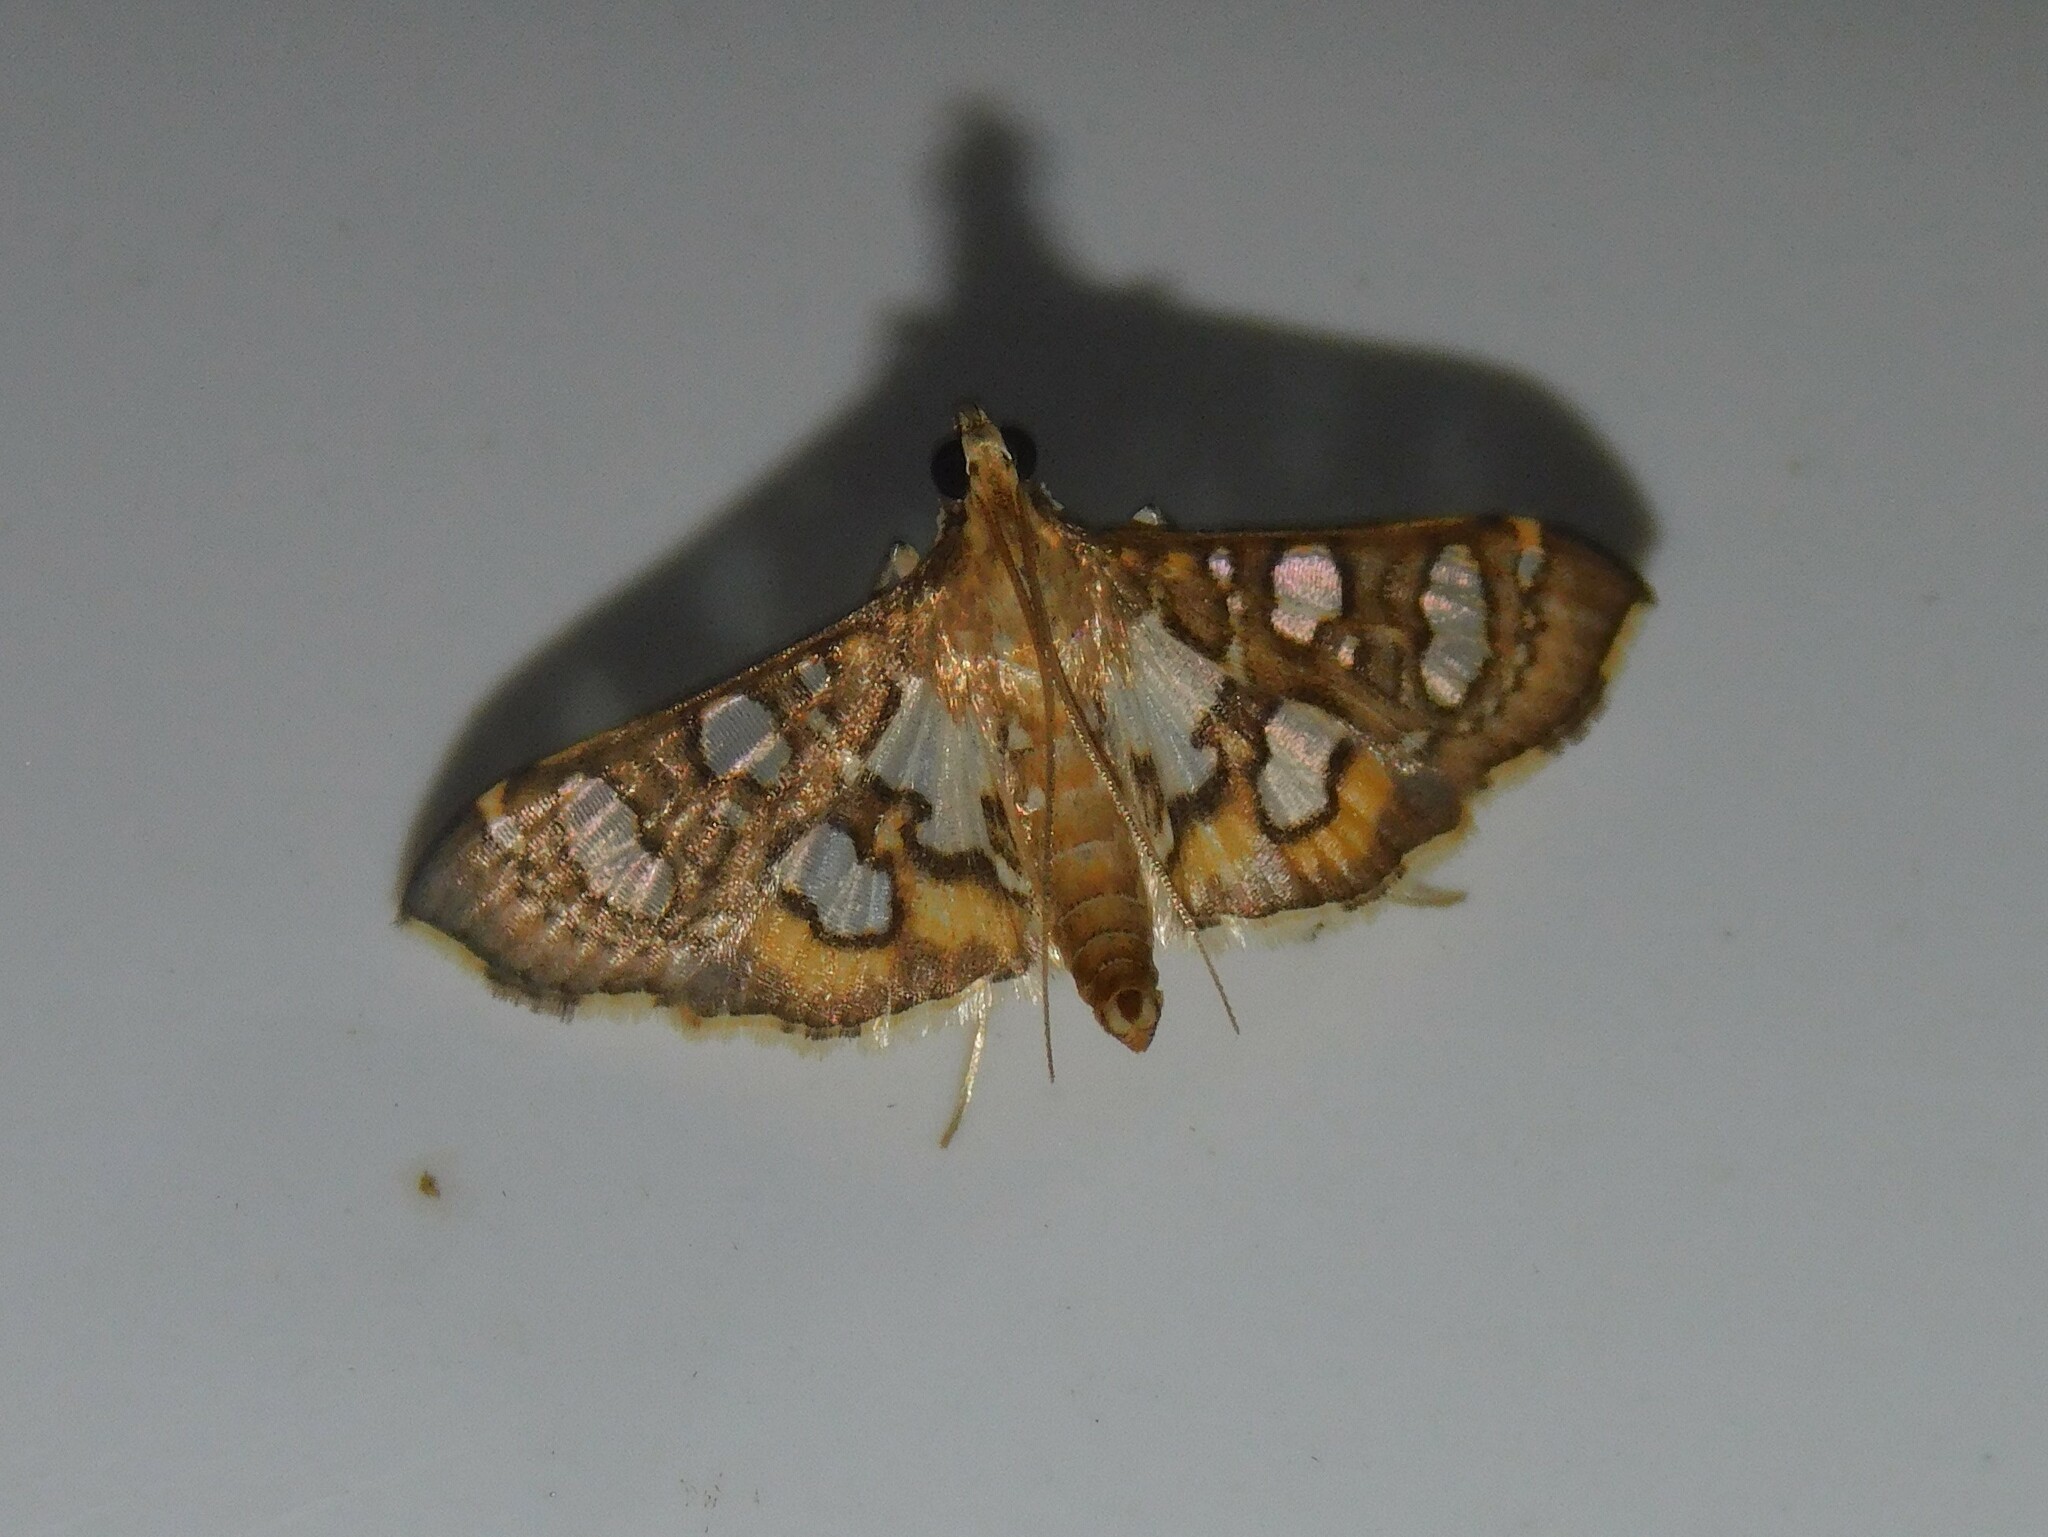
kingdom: Animalia
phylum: Arthropoda
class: Insecta
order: Lepidoptera
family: Crambidae
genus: Nausinoe
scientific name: Nausinoe quadrinalis
